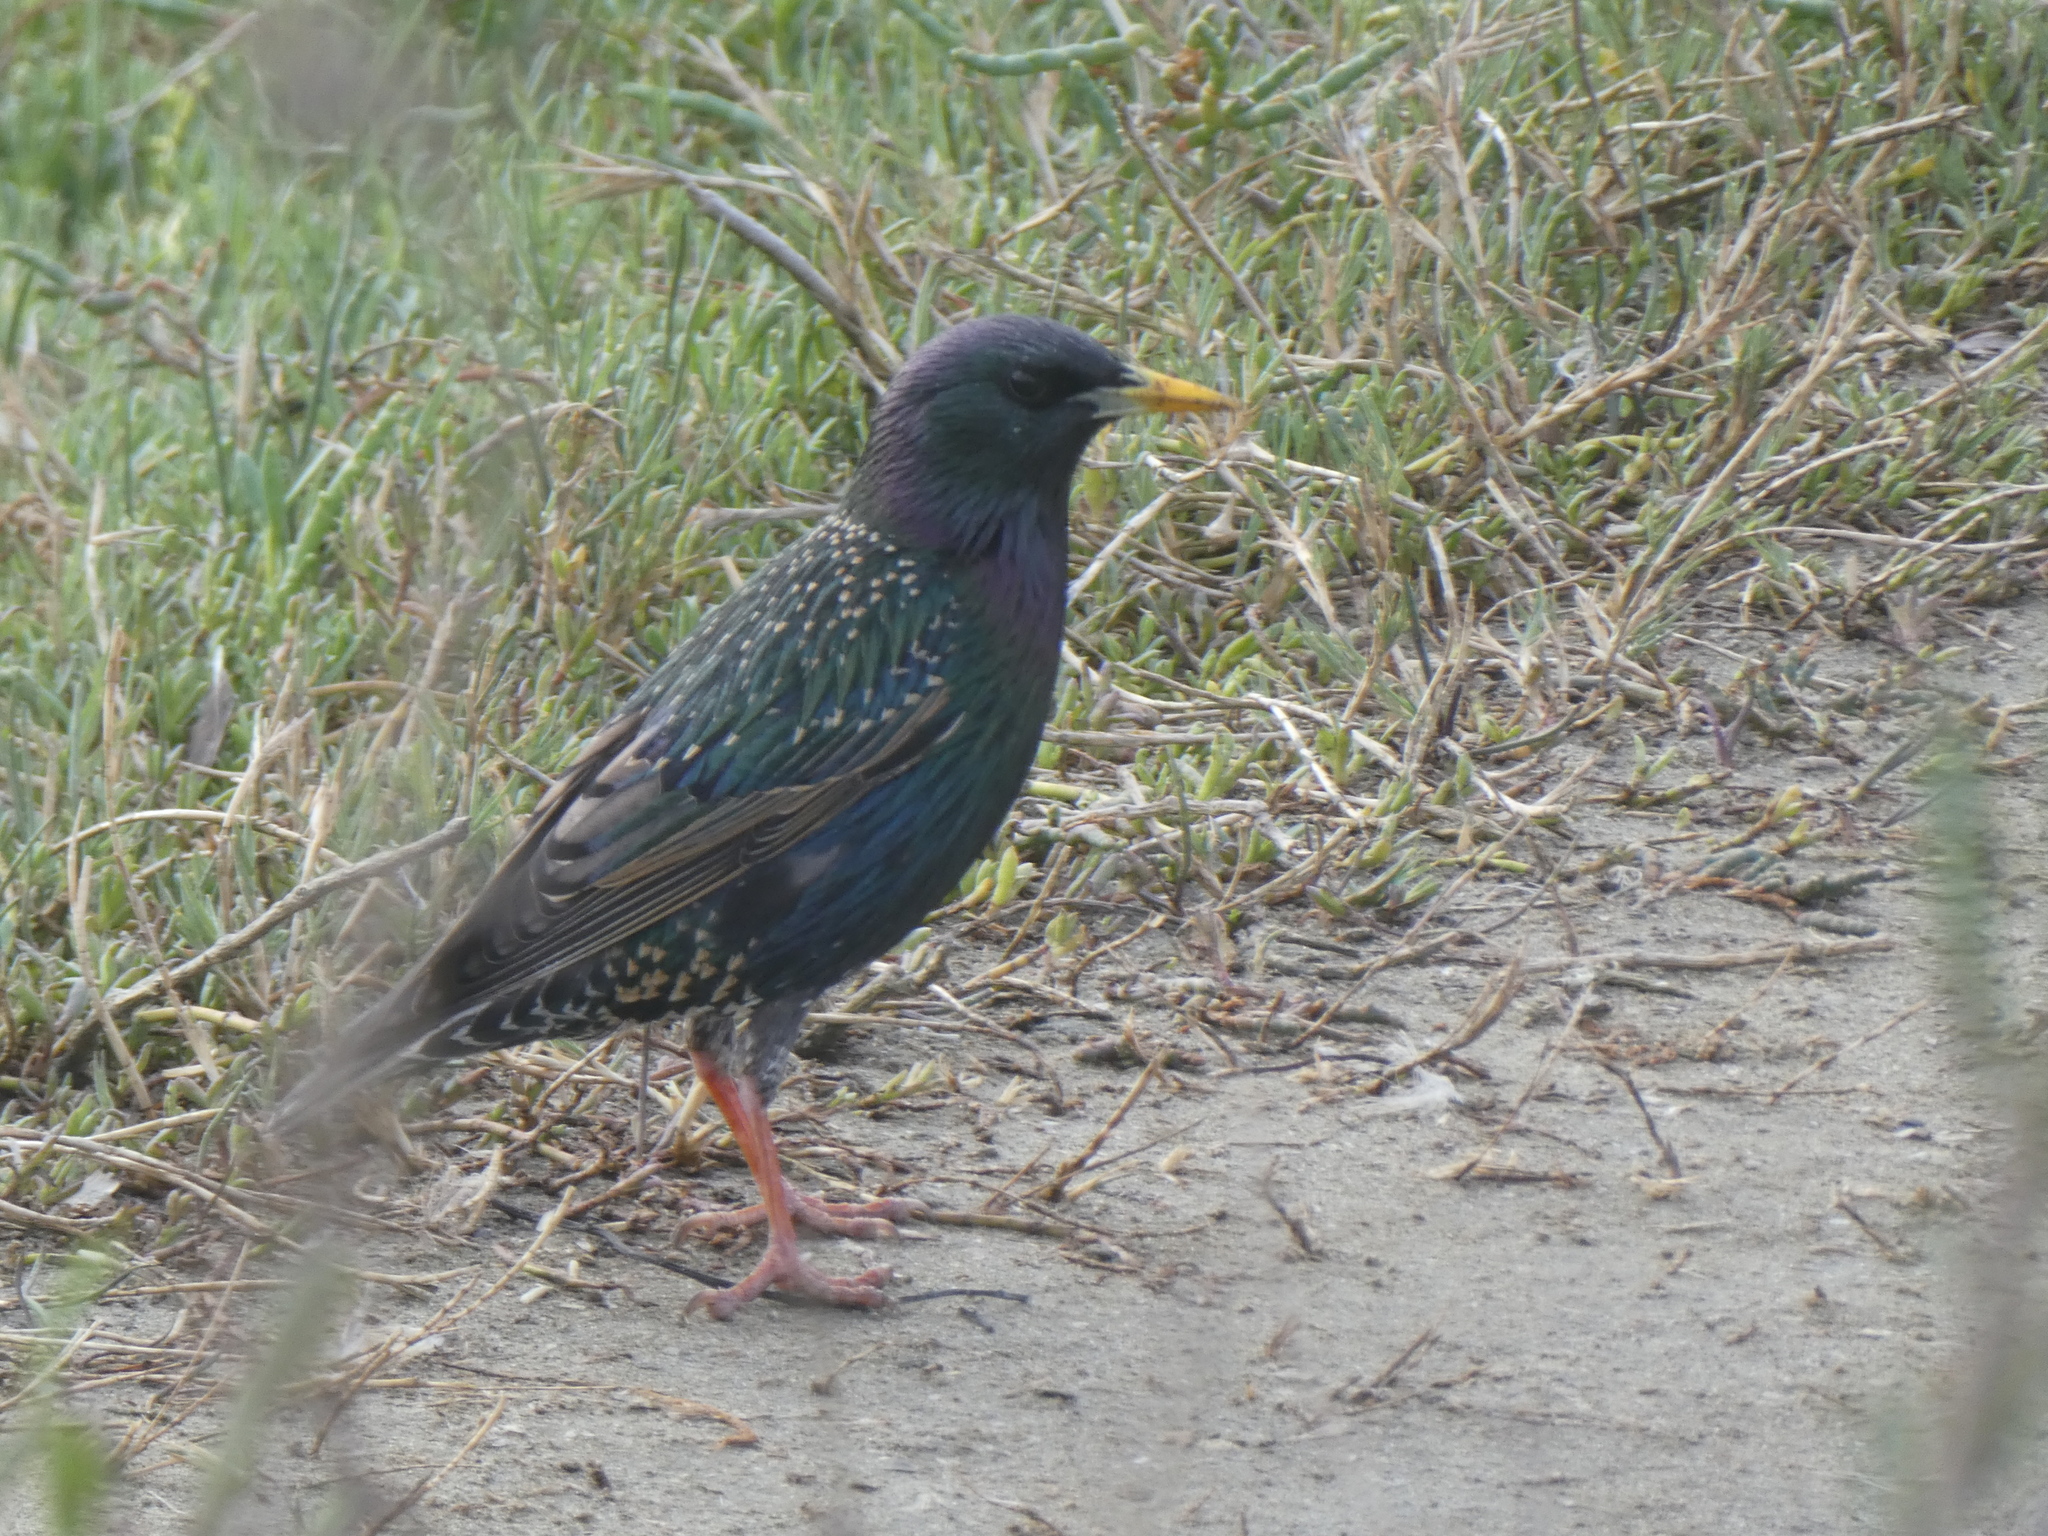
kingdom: Animalia
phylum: Chordata
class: Aves
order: Passeriformes
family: Sturnidae
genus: Sturnus
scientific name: Sturnus vulgaris
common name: Common starling
